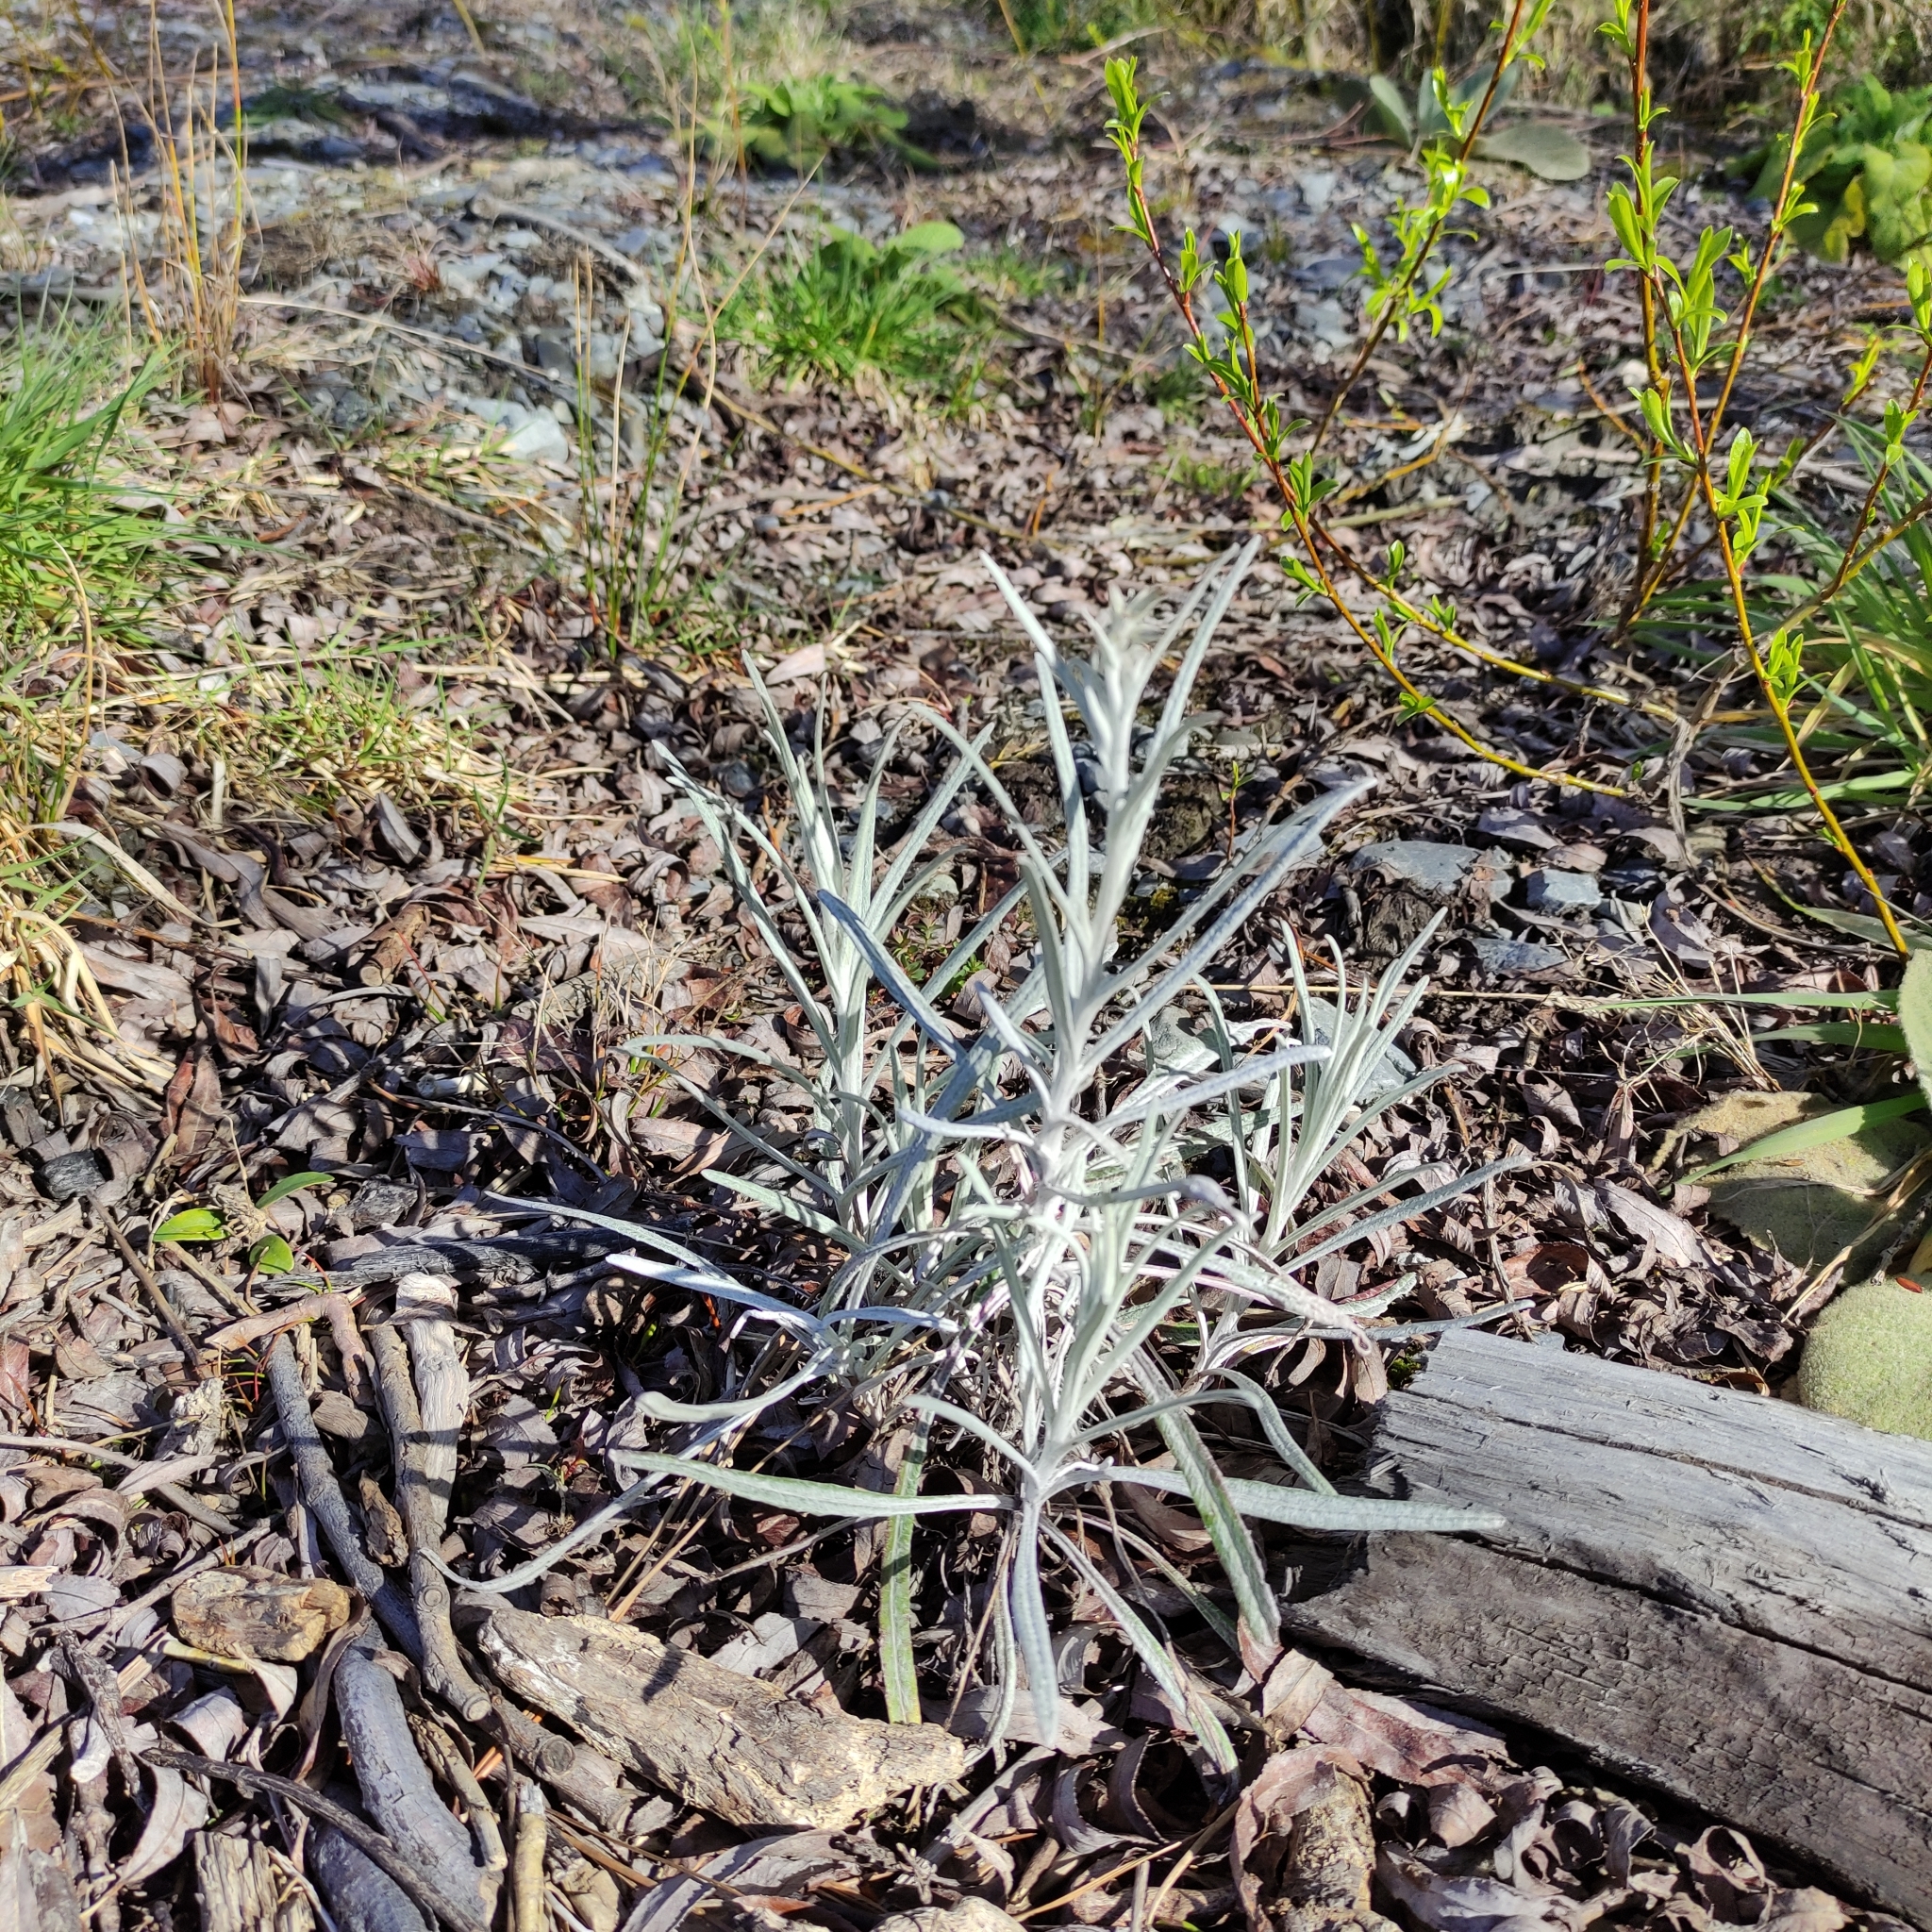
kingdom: Plantae
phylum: Tracheophyta
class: Magnoliopsida
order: Asterales
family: Asteraceae
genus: Senecio
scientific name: Senecio quadridentatus
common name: Cotton fireweed
